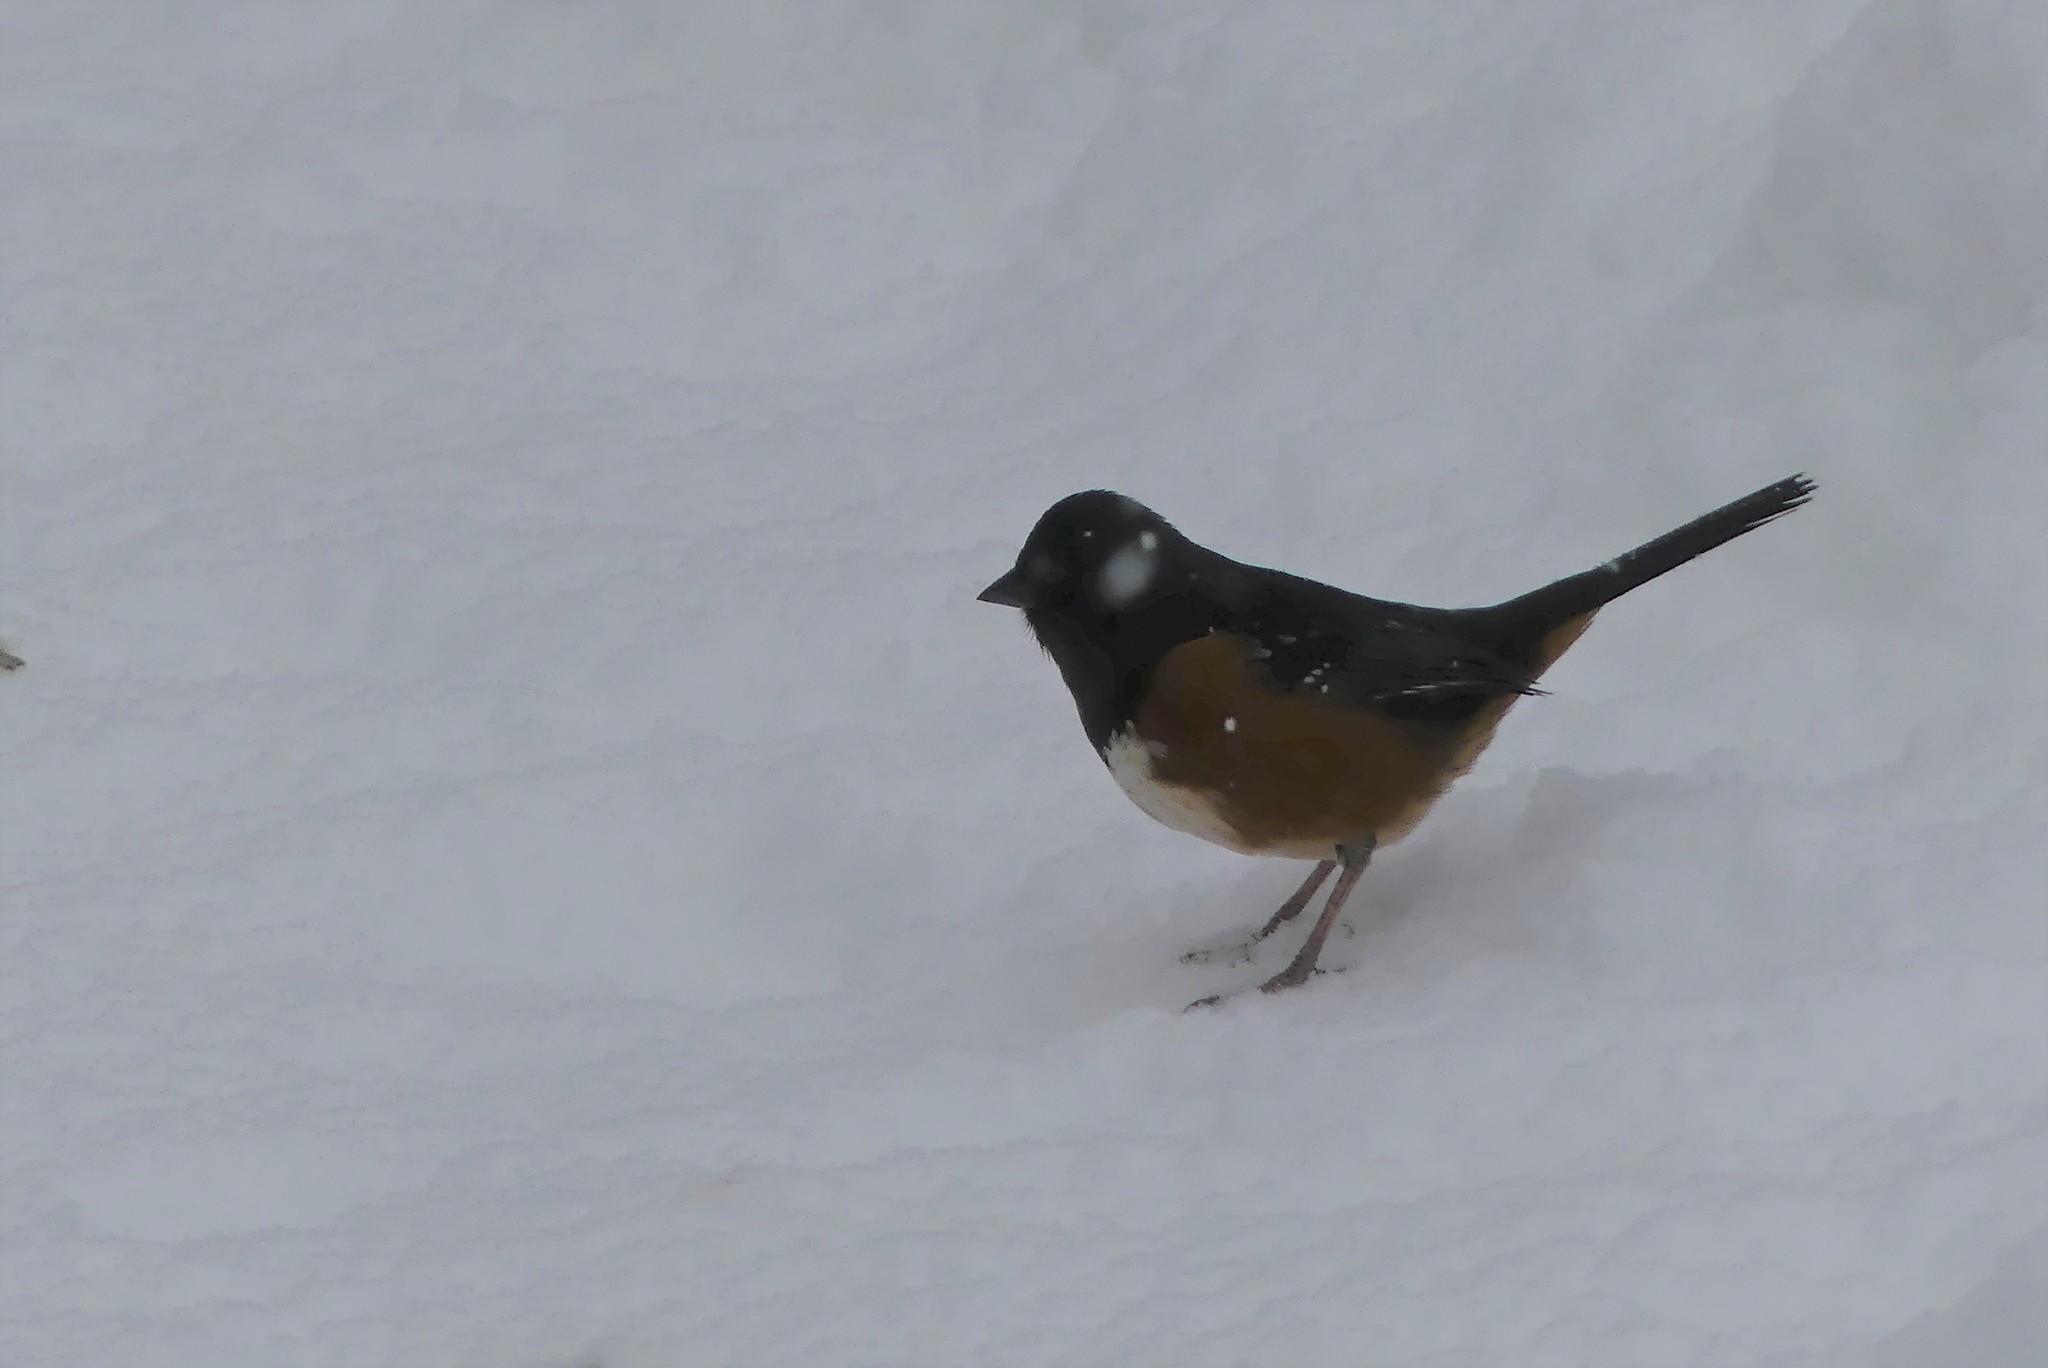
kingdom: Animalia
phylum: Chordata
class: Aves
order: Passeriformes
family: Passerellidae
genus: Pipilo
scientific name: Pipilo maculatus
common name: Spotted towhee
